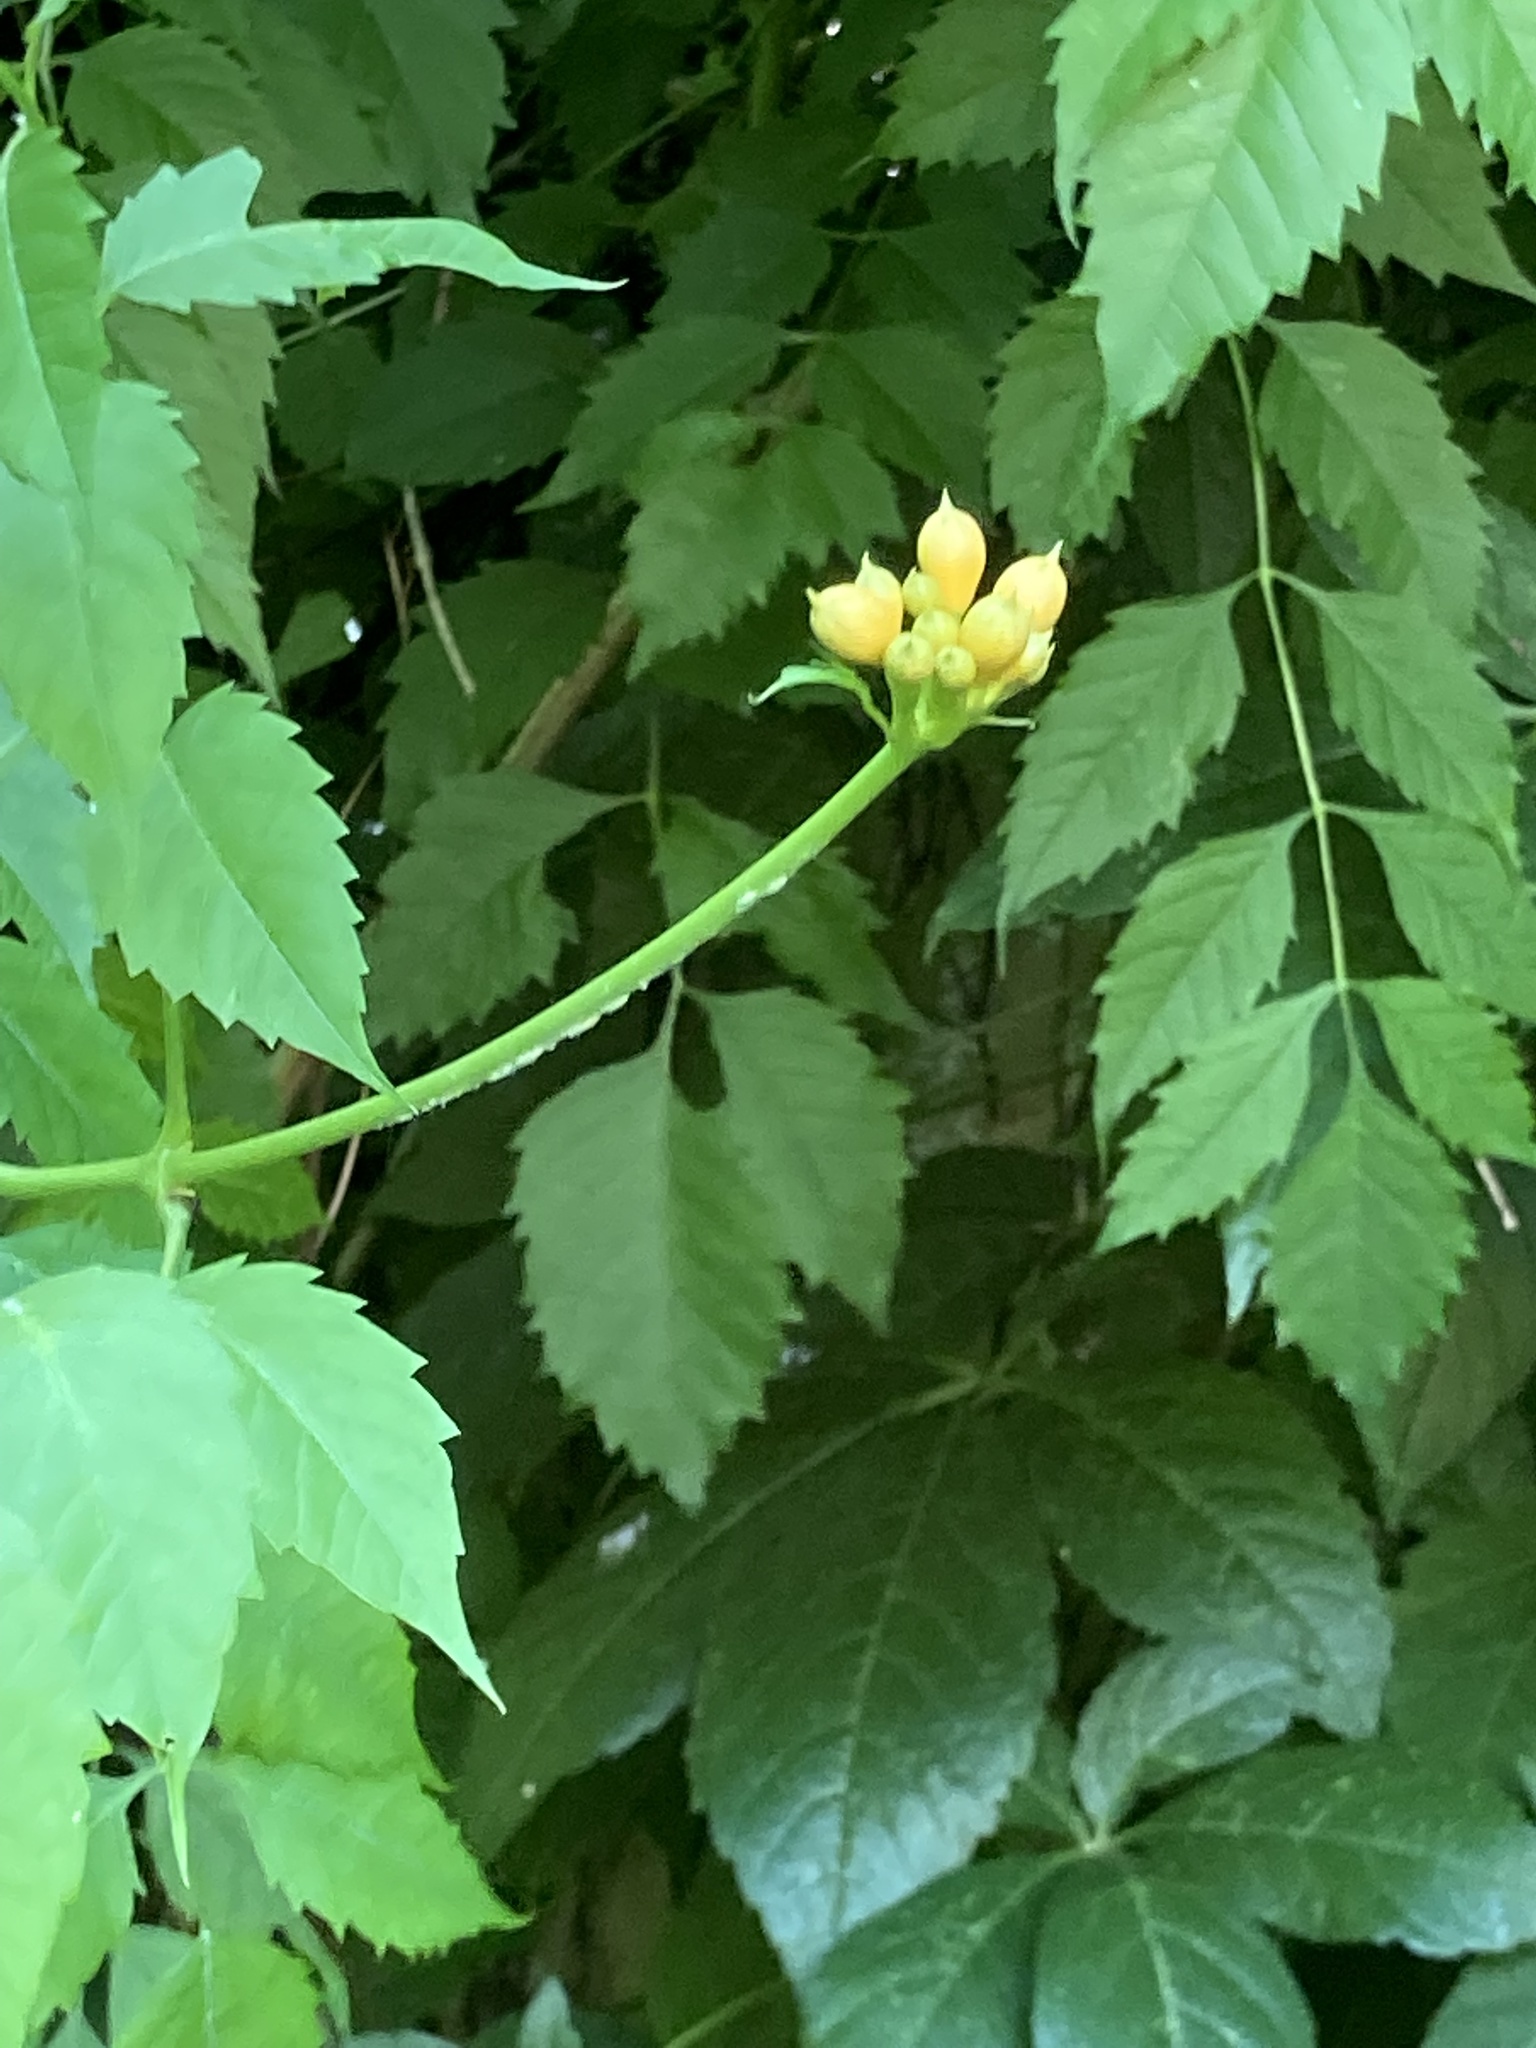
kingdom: Plantae
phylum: Tracheophyta
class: Magnoliopsida
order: Lamiales
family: Bignoniaceae
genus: Campsis
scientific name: Campsis radicans
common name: Trumpet-creeper
